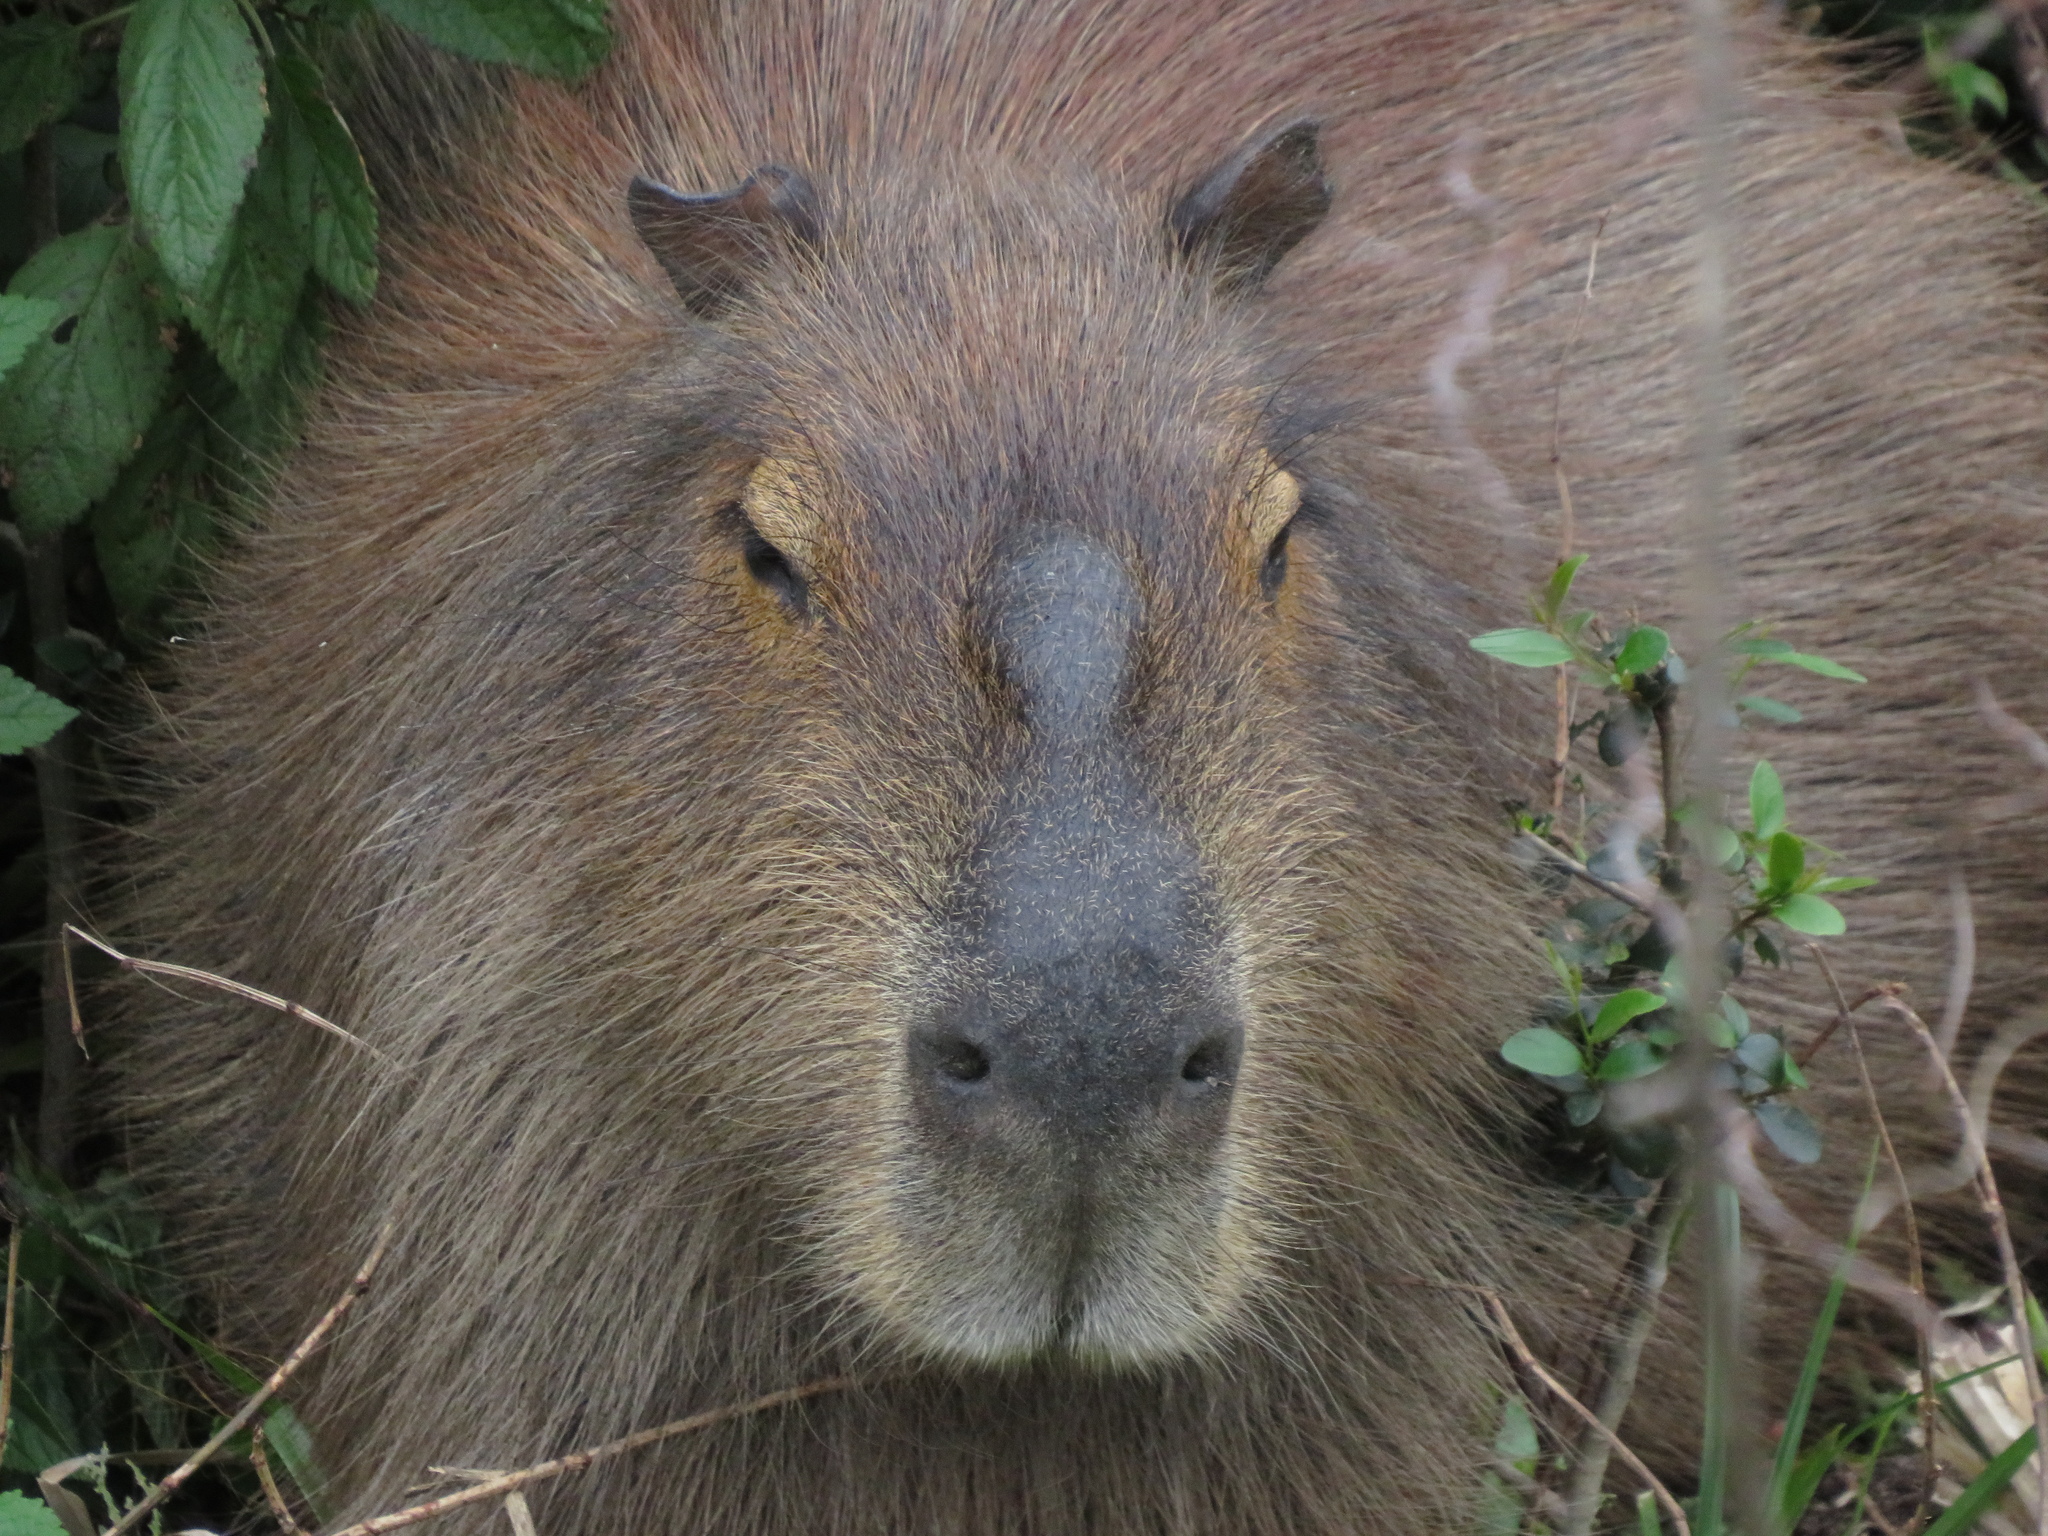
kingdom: Animalia
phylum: Chordata
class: Mammalia
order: Rodentia
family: Caviidae
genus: Hydrochoerus
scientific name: Hydrochoerus hydrochaeris
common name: Capybara
